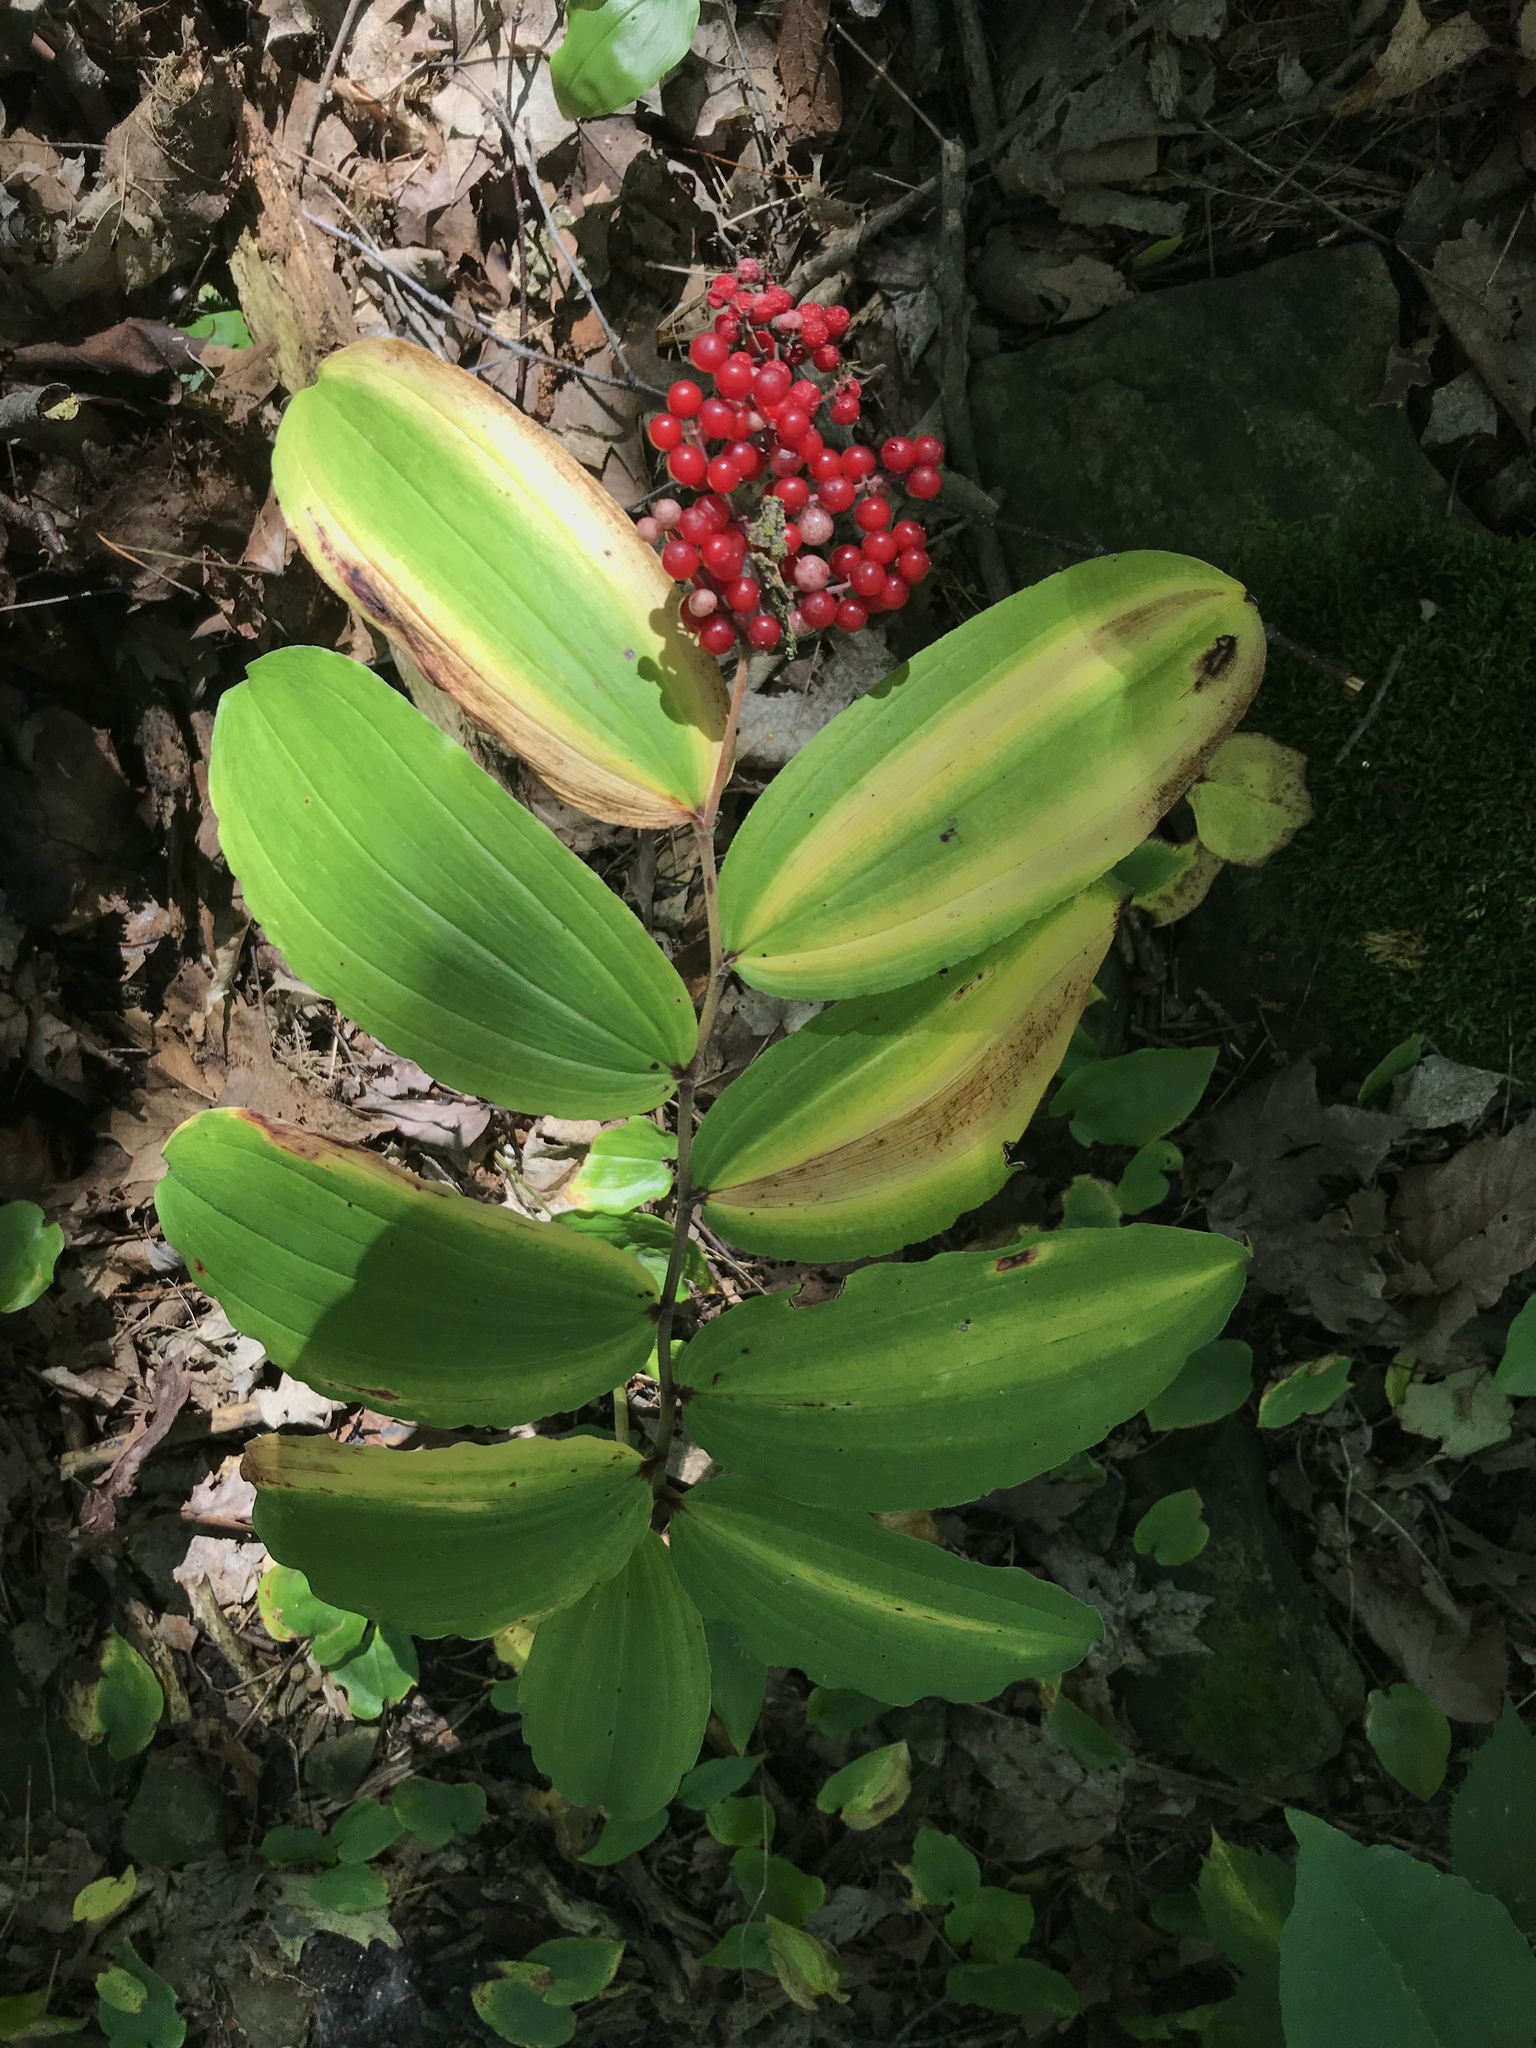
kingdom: Plantae
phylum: Tracheophyta
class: Liliopsida
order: Asparagales
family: Asparagaceae
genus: Maianthemum
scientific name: Maianthemum racemosum
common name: False spikenard
